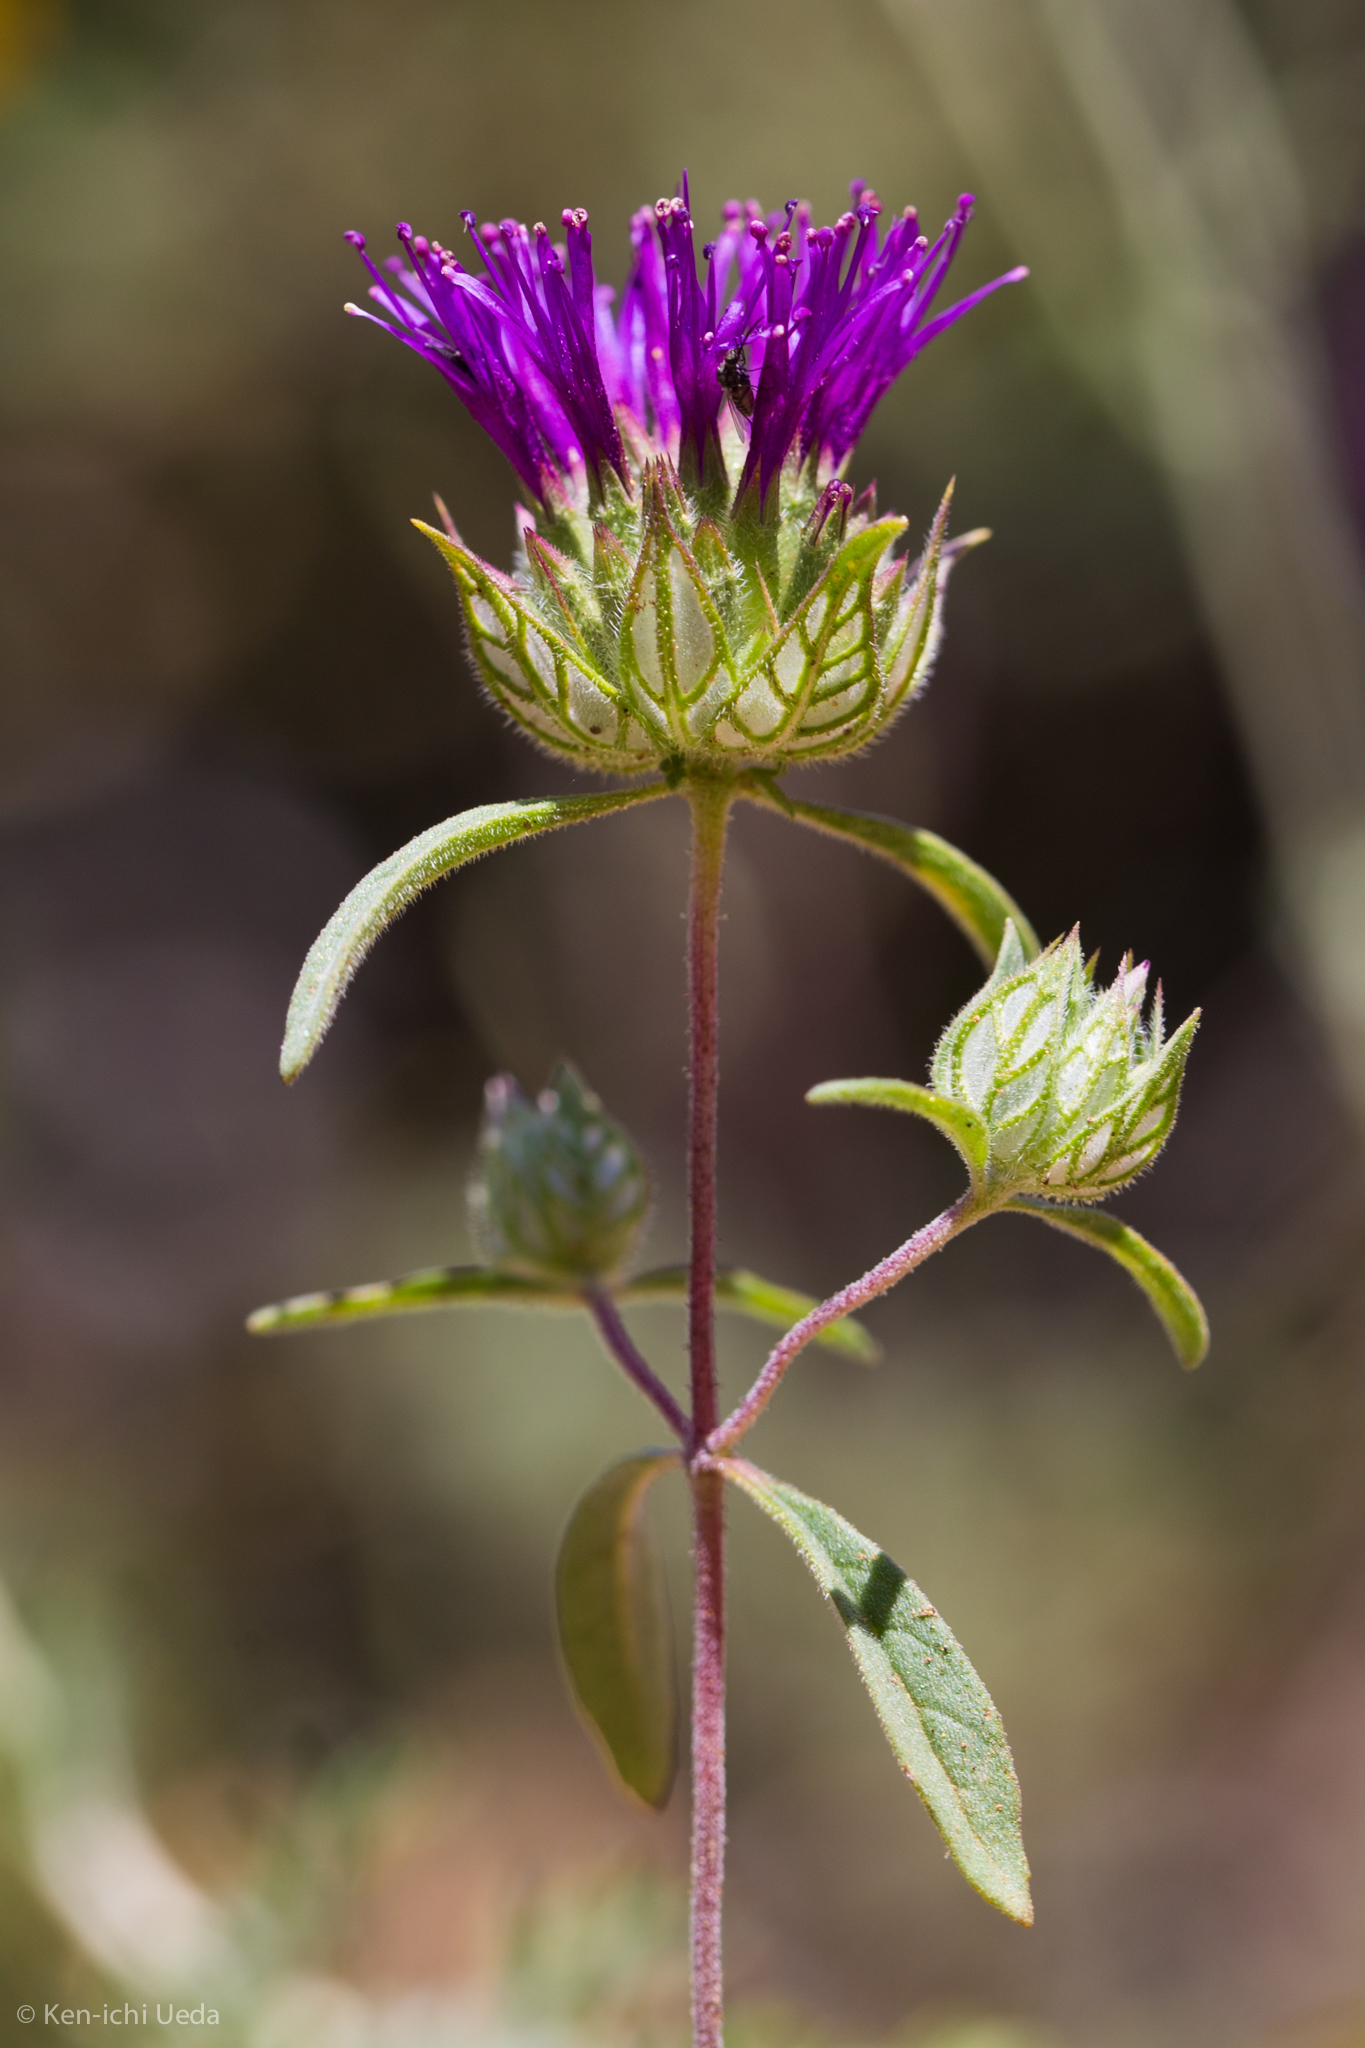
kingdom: Plantae
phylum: Tracheophyta
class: Magnoliopsida
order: Lamiales
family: Lamiaceae
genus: Monardella
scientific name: Monardella douglasii
